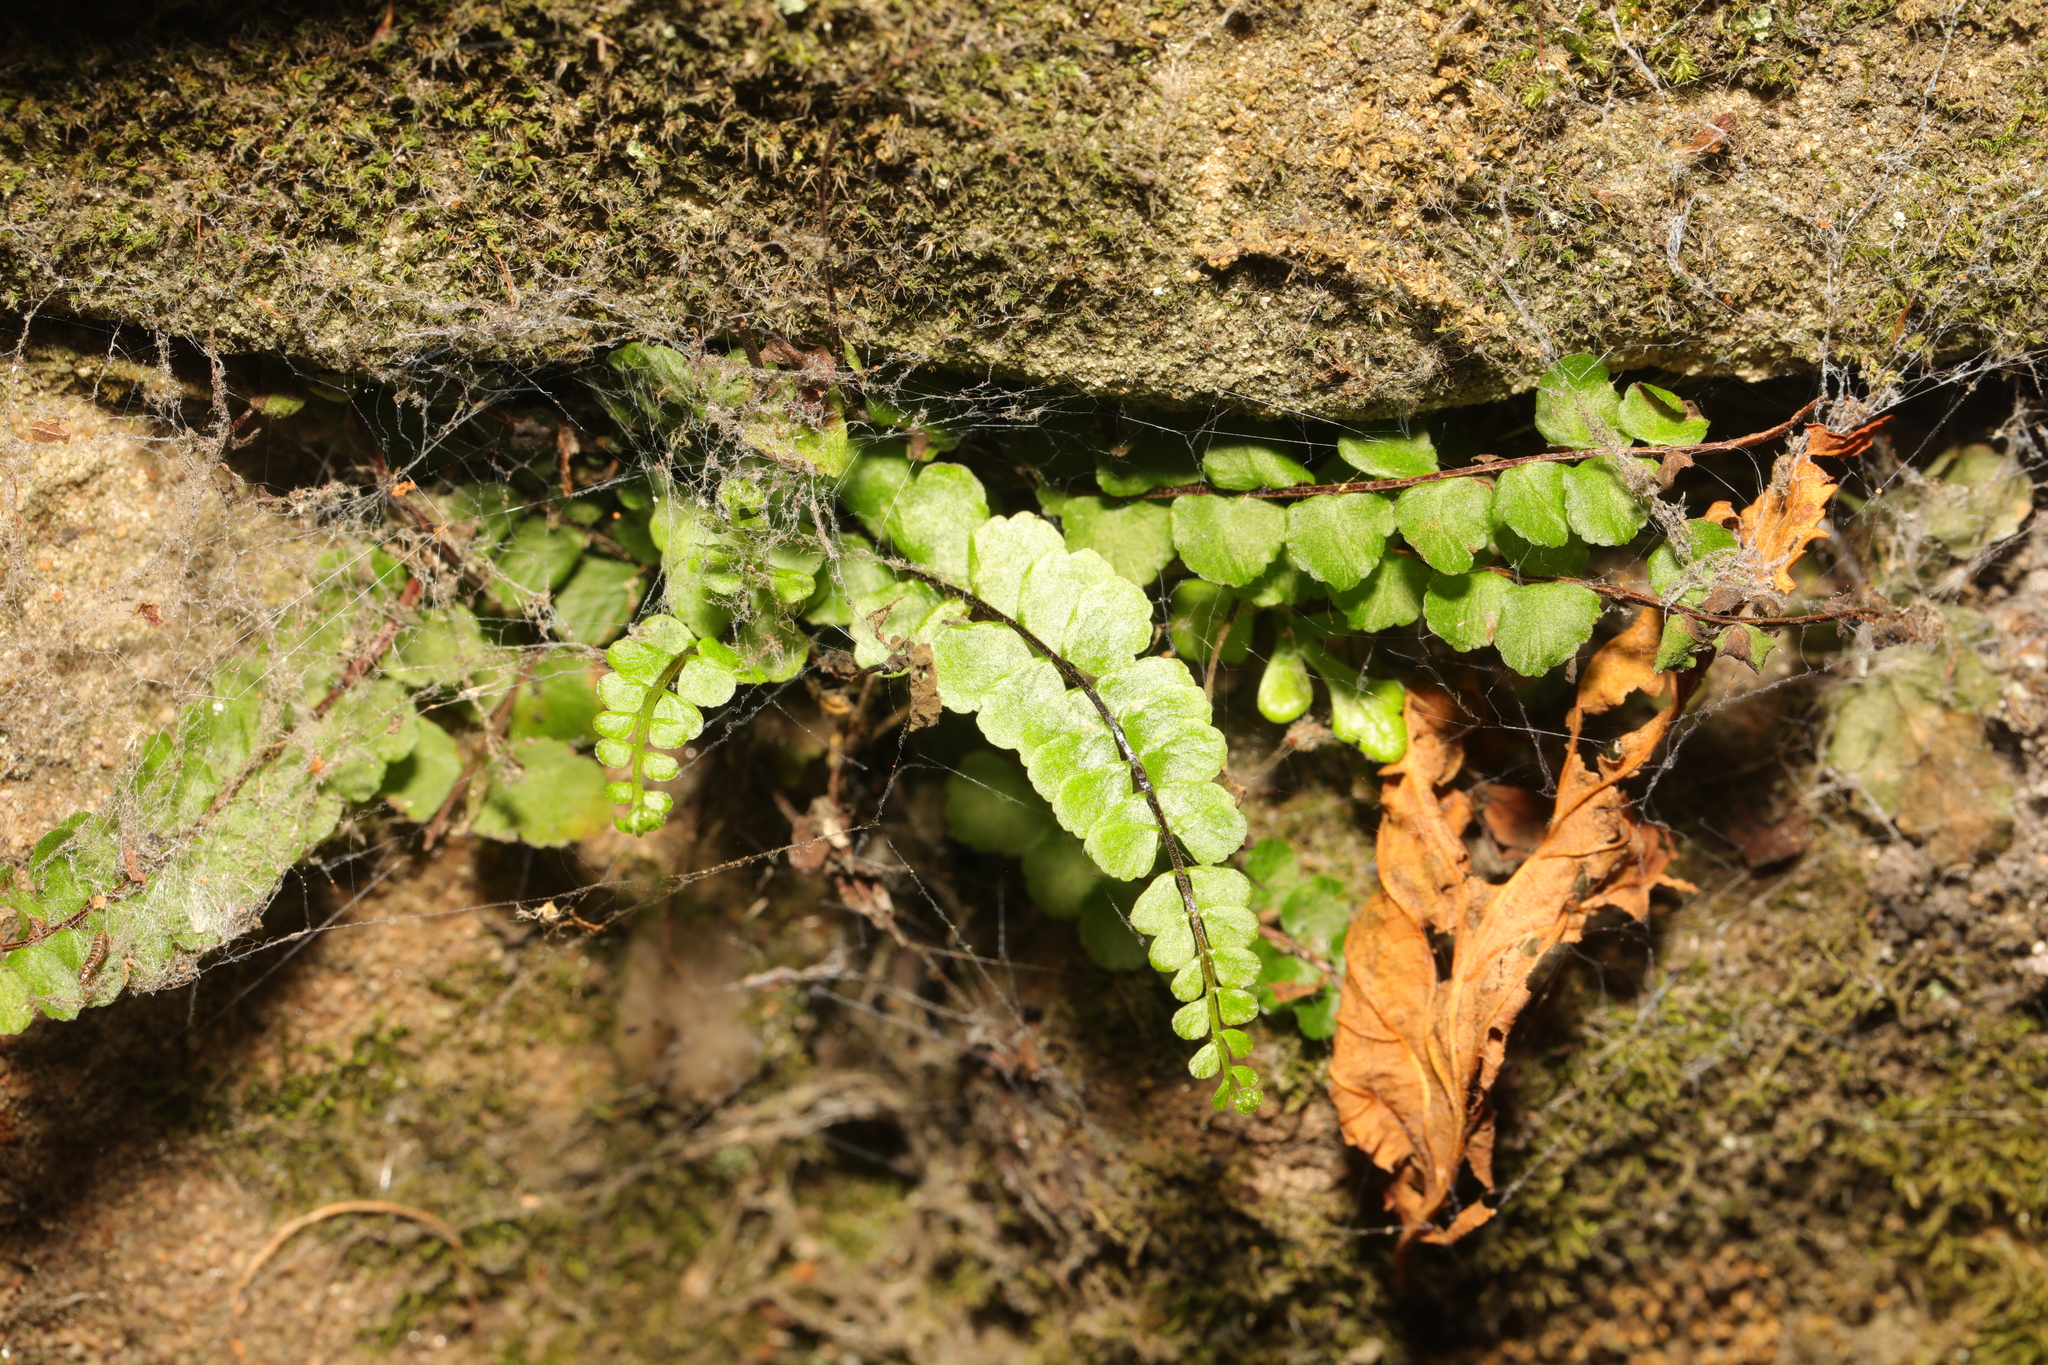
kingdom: Plantae
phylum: Tracheophyta
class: Polypodiopsida
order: Polypodiales
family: Aspleniaceae
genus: Asplenium
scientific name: Asplenium trichomanes
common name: Maidenhair spleenwort
